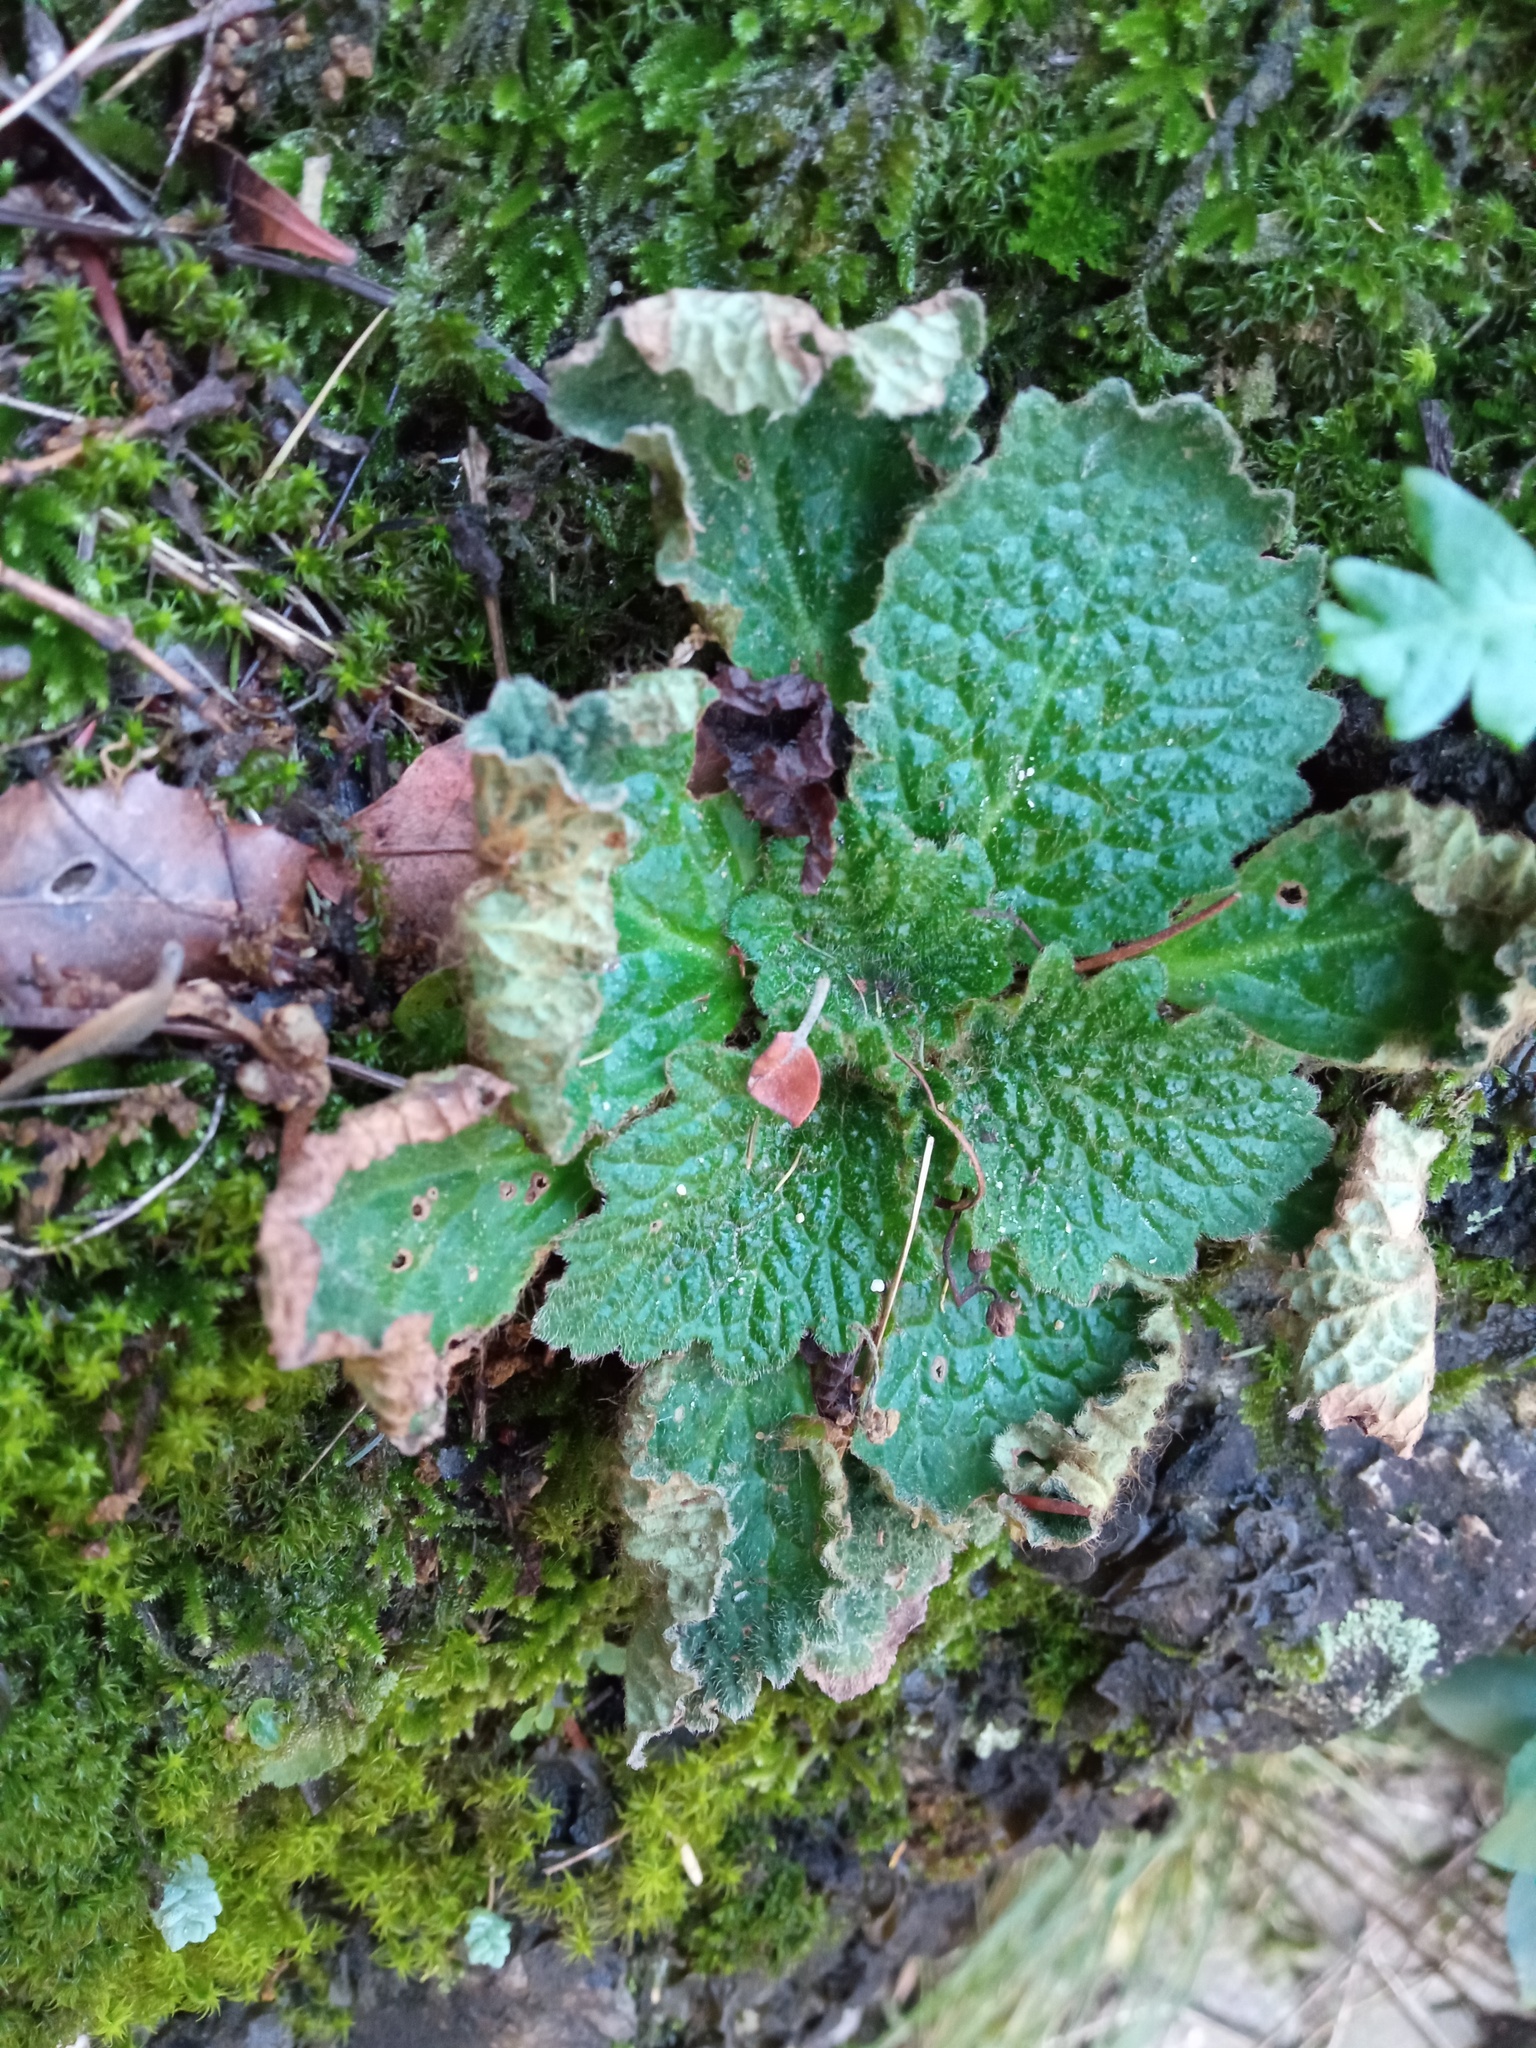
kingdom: Plantae
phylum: Tracheophyta
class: Magnoliopsida
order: Lamiales
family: Gesneriaceae
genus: Ramonda
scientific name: Ramonda myconi
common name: Pyrenean-violet
